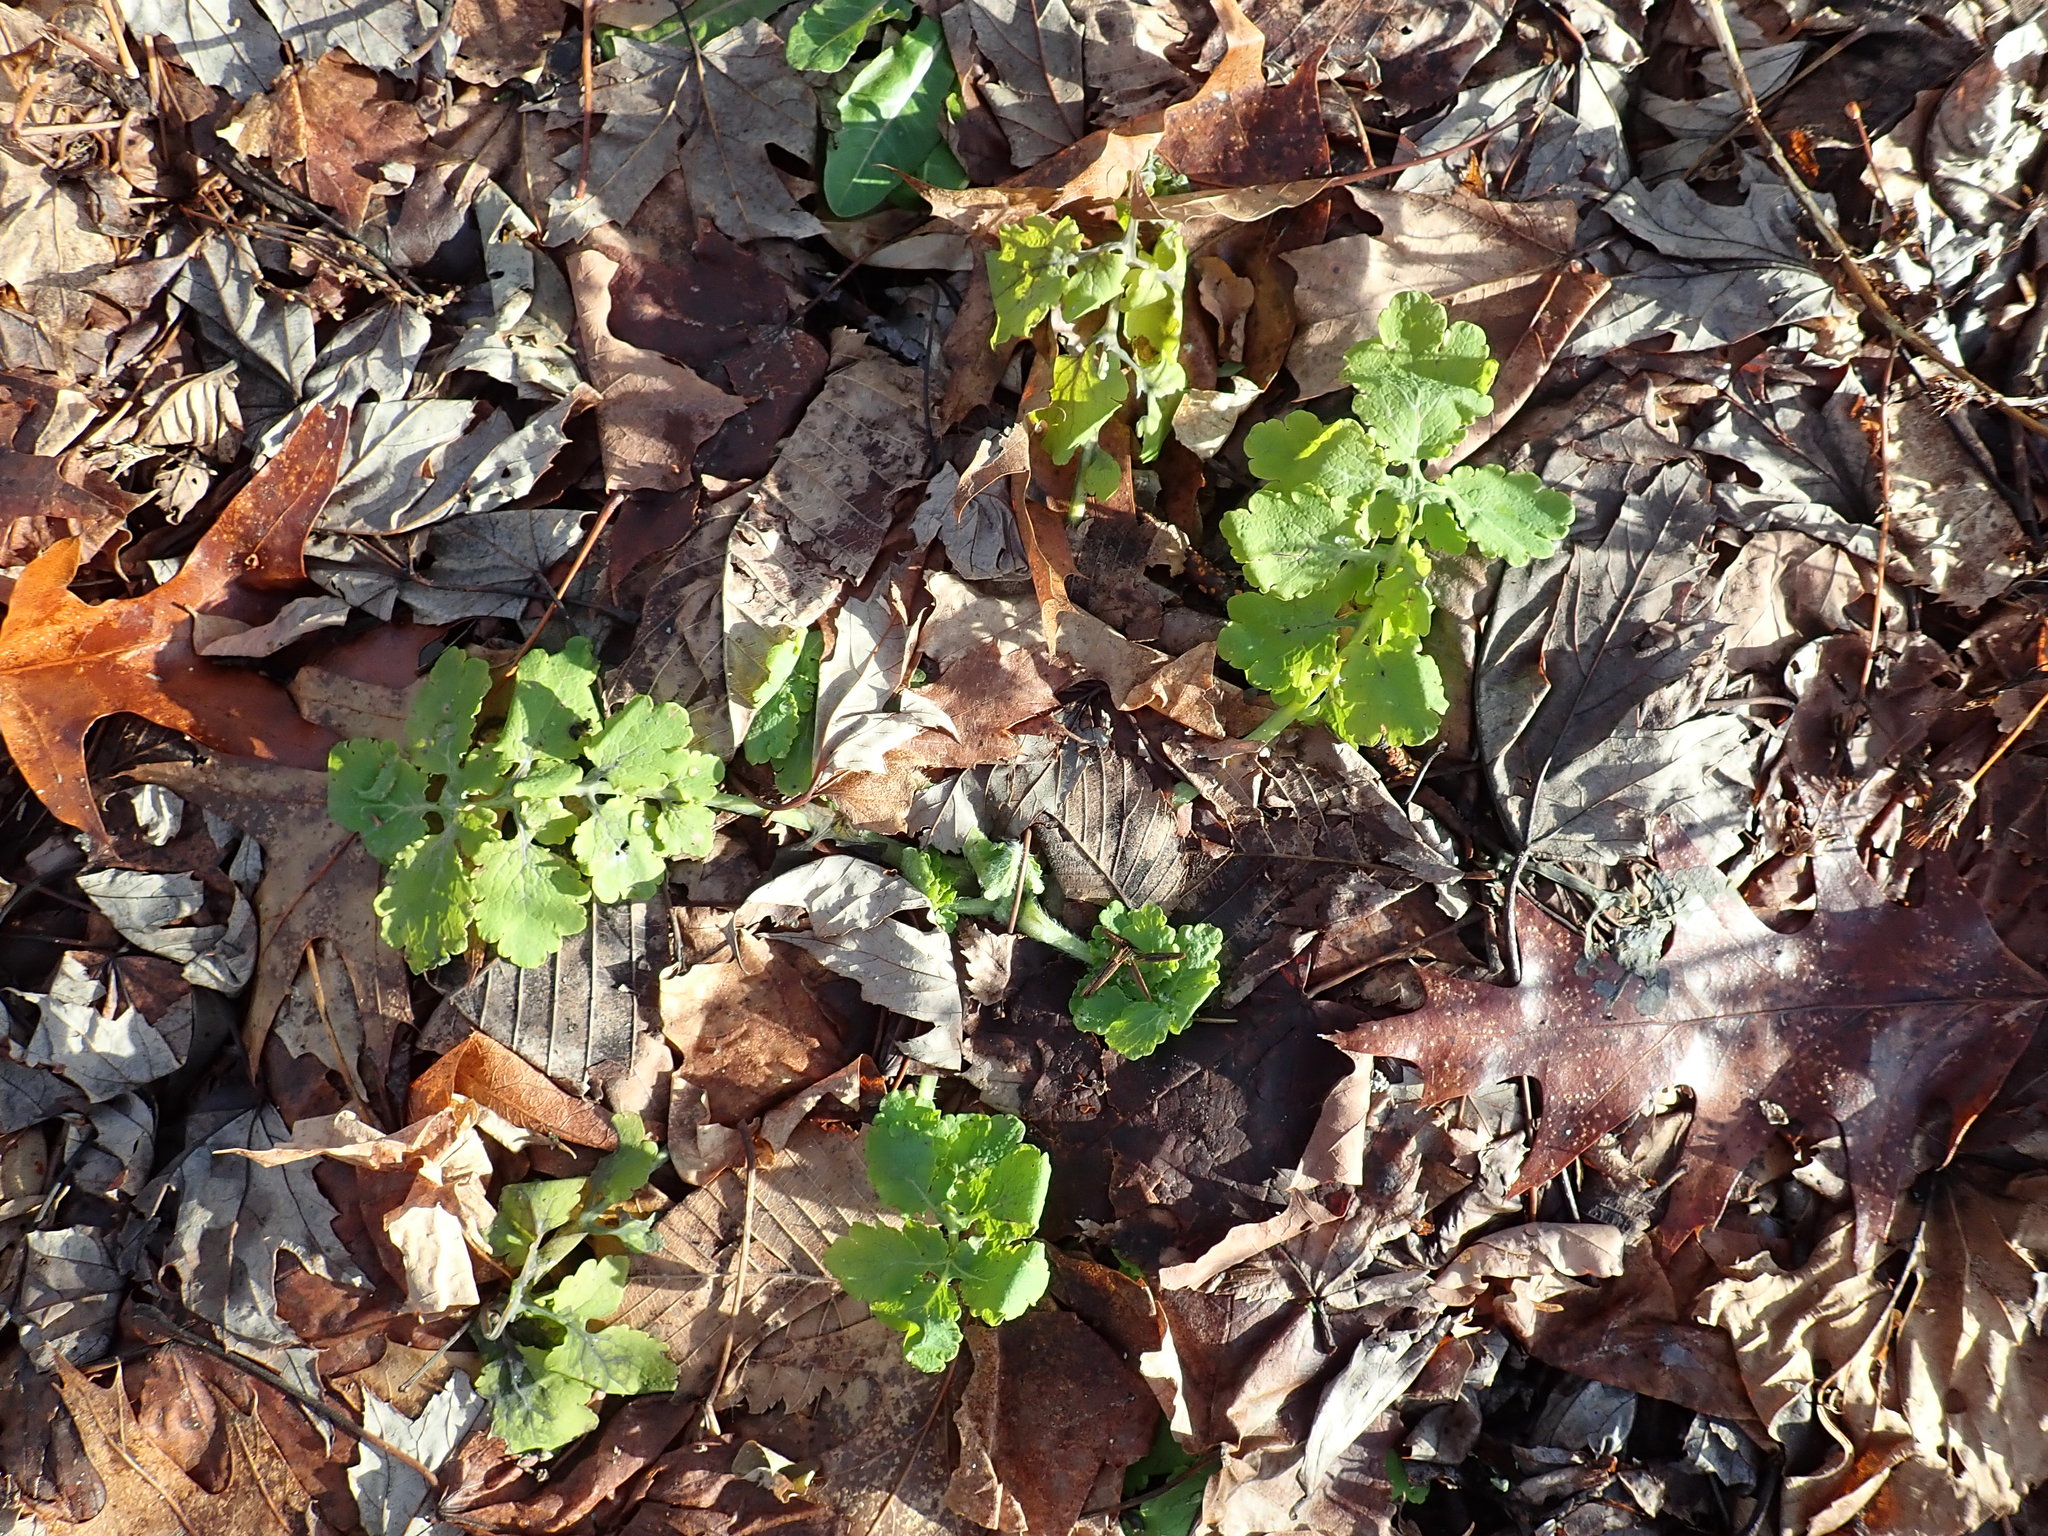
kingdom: Plantae
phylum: Tracheophyta
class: Magnoliopsida
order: Ranunculales
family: Papaveraceae
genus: Chelidonium
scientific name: Chelidonium majus
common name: Greater celandine
